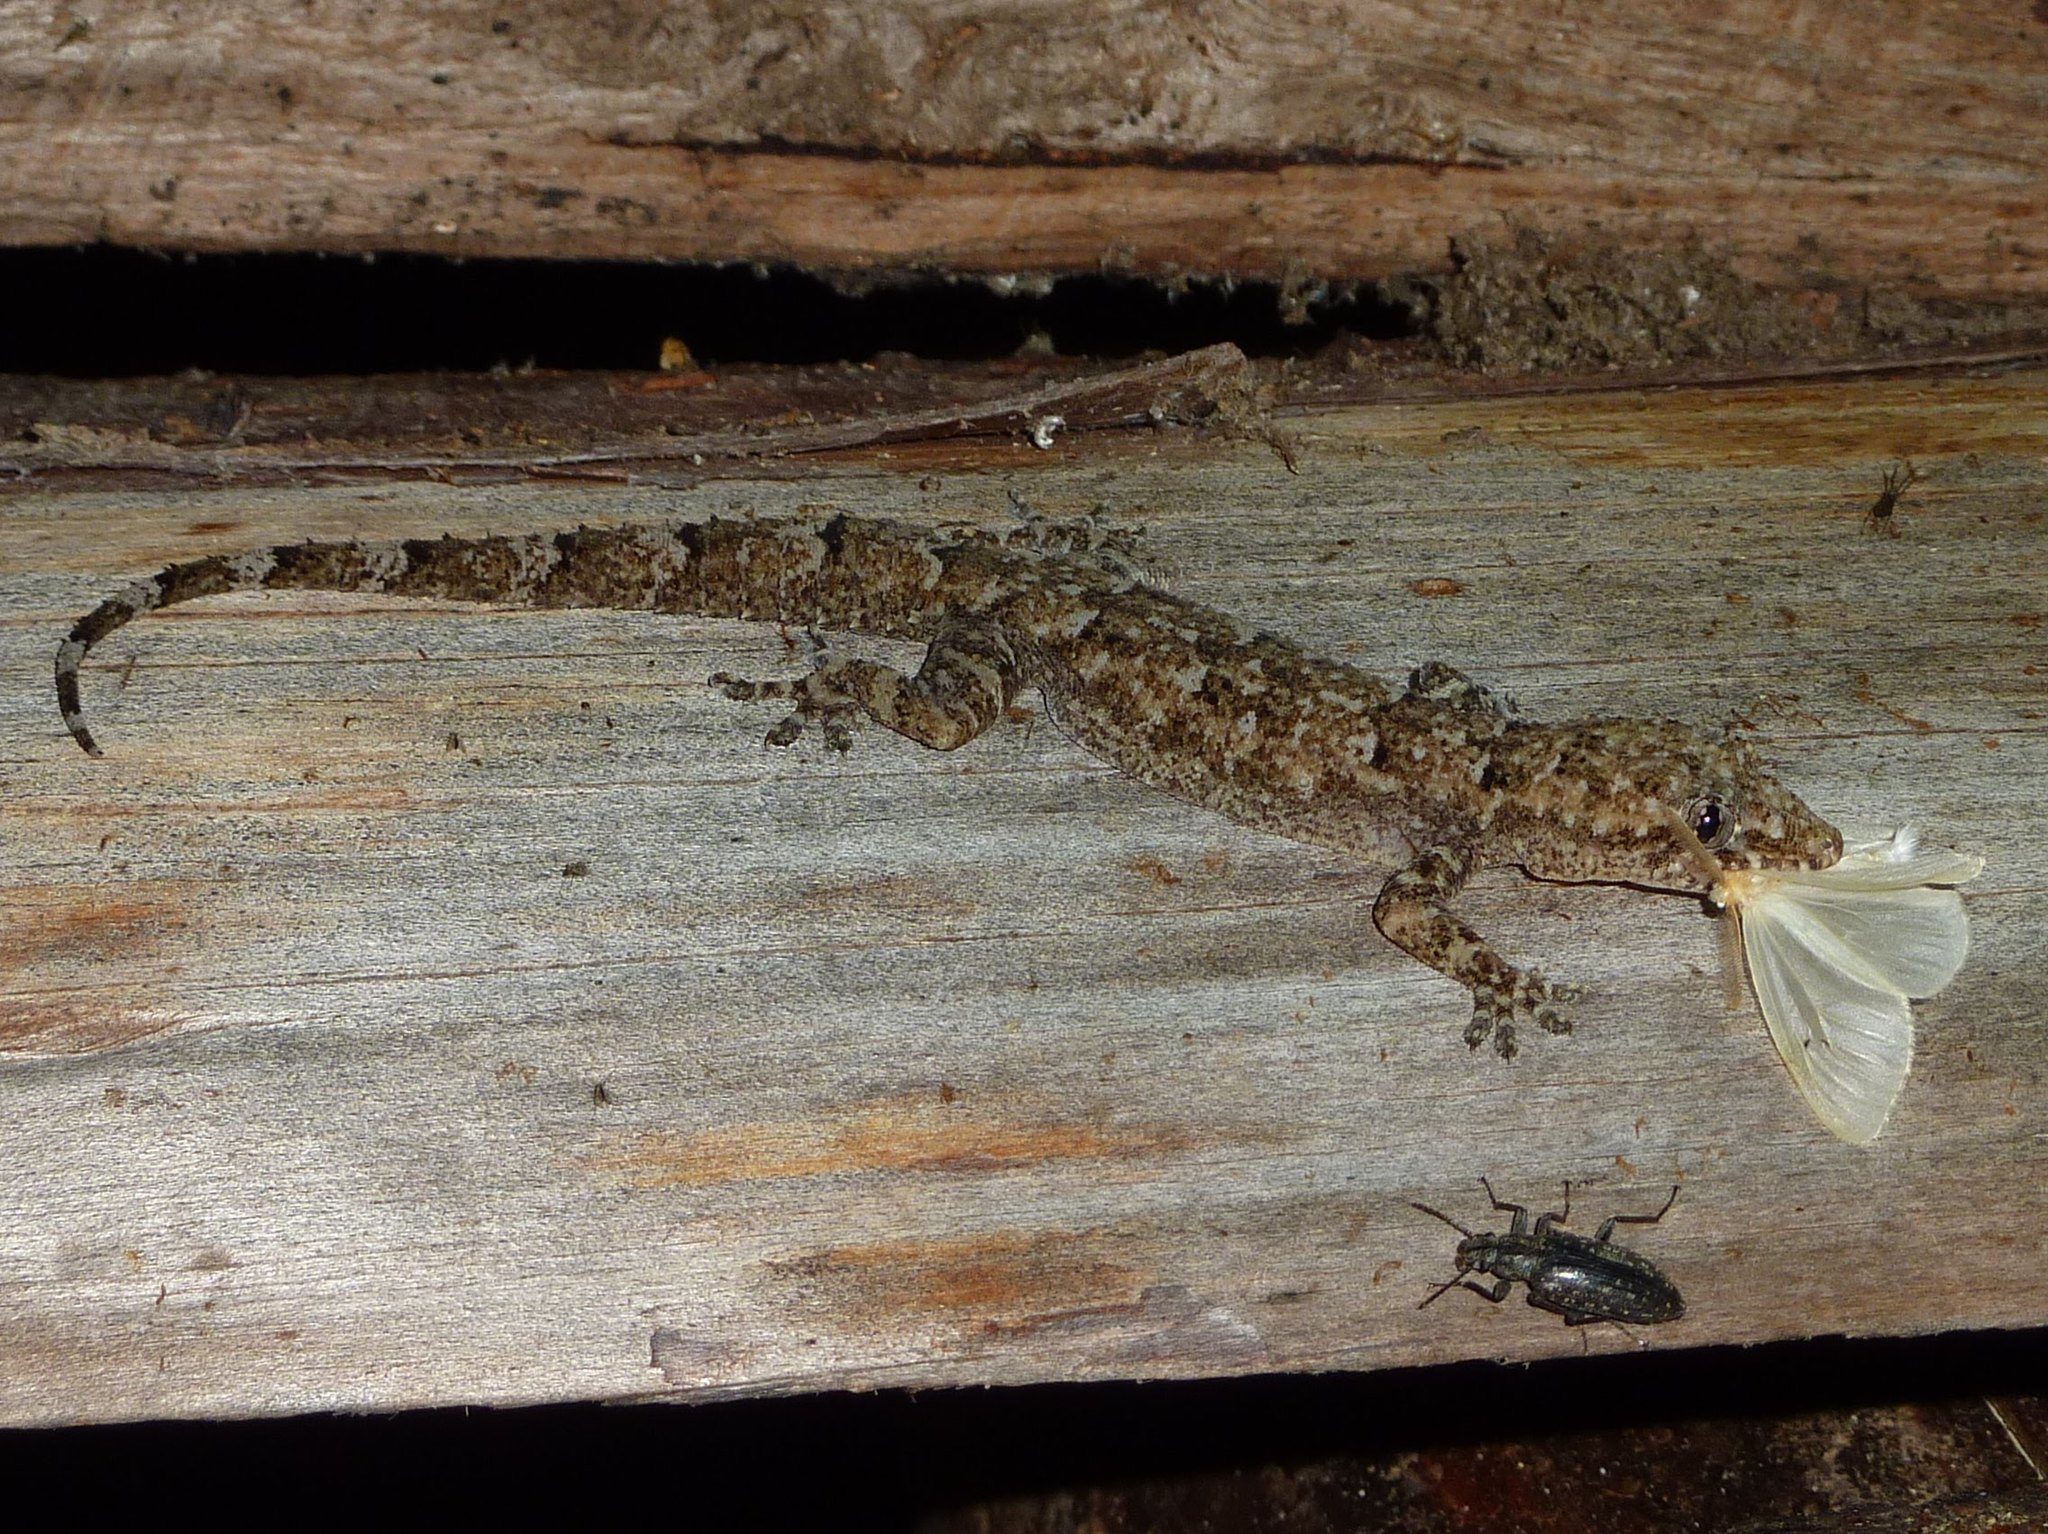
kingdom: Animalia
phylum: Chordata
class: Squamata
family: Gekkonidae
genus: Hemidactylus
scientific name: Hemidactylus platycephalus
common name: Baobab gecko
